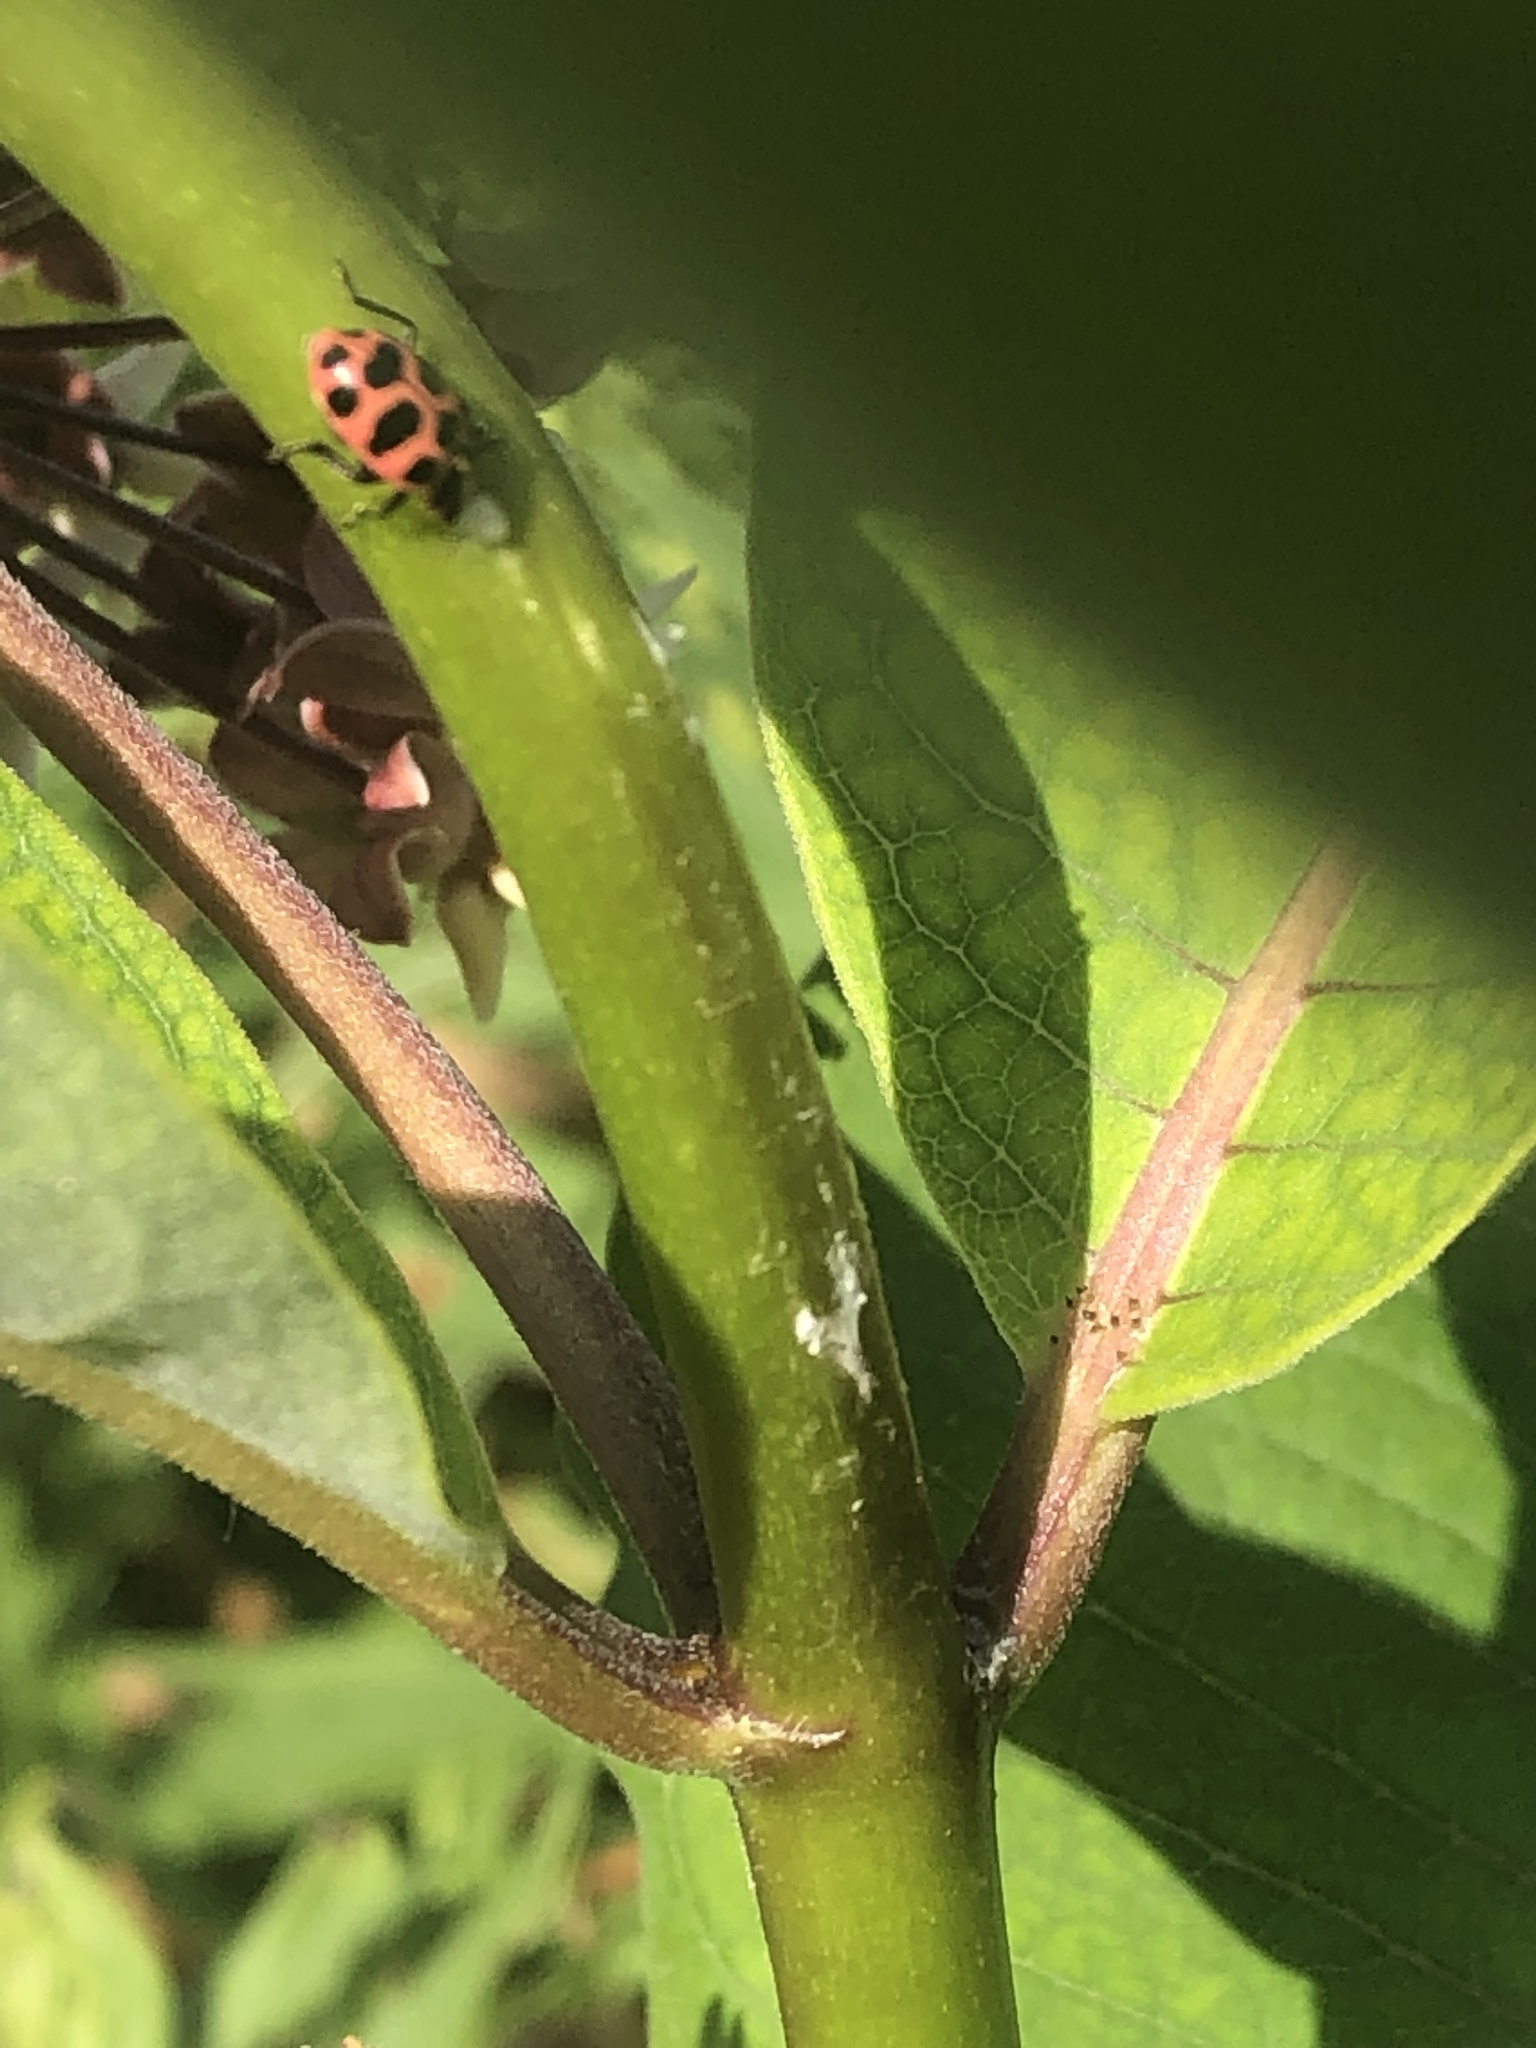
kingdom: Animalia
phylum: Arthropoda
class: Insecta
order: Coleoptera
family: Coccinellidae
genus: Coleomegilla
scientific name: Coleomegilla maculata
